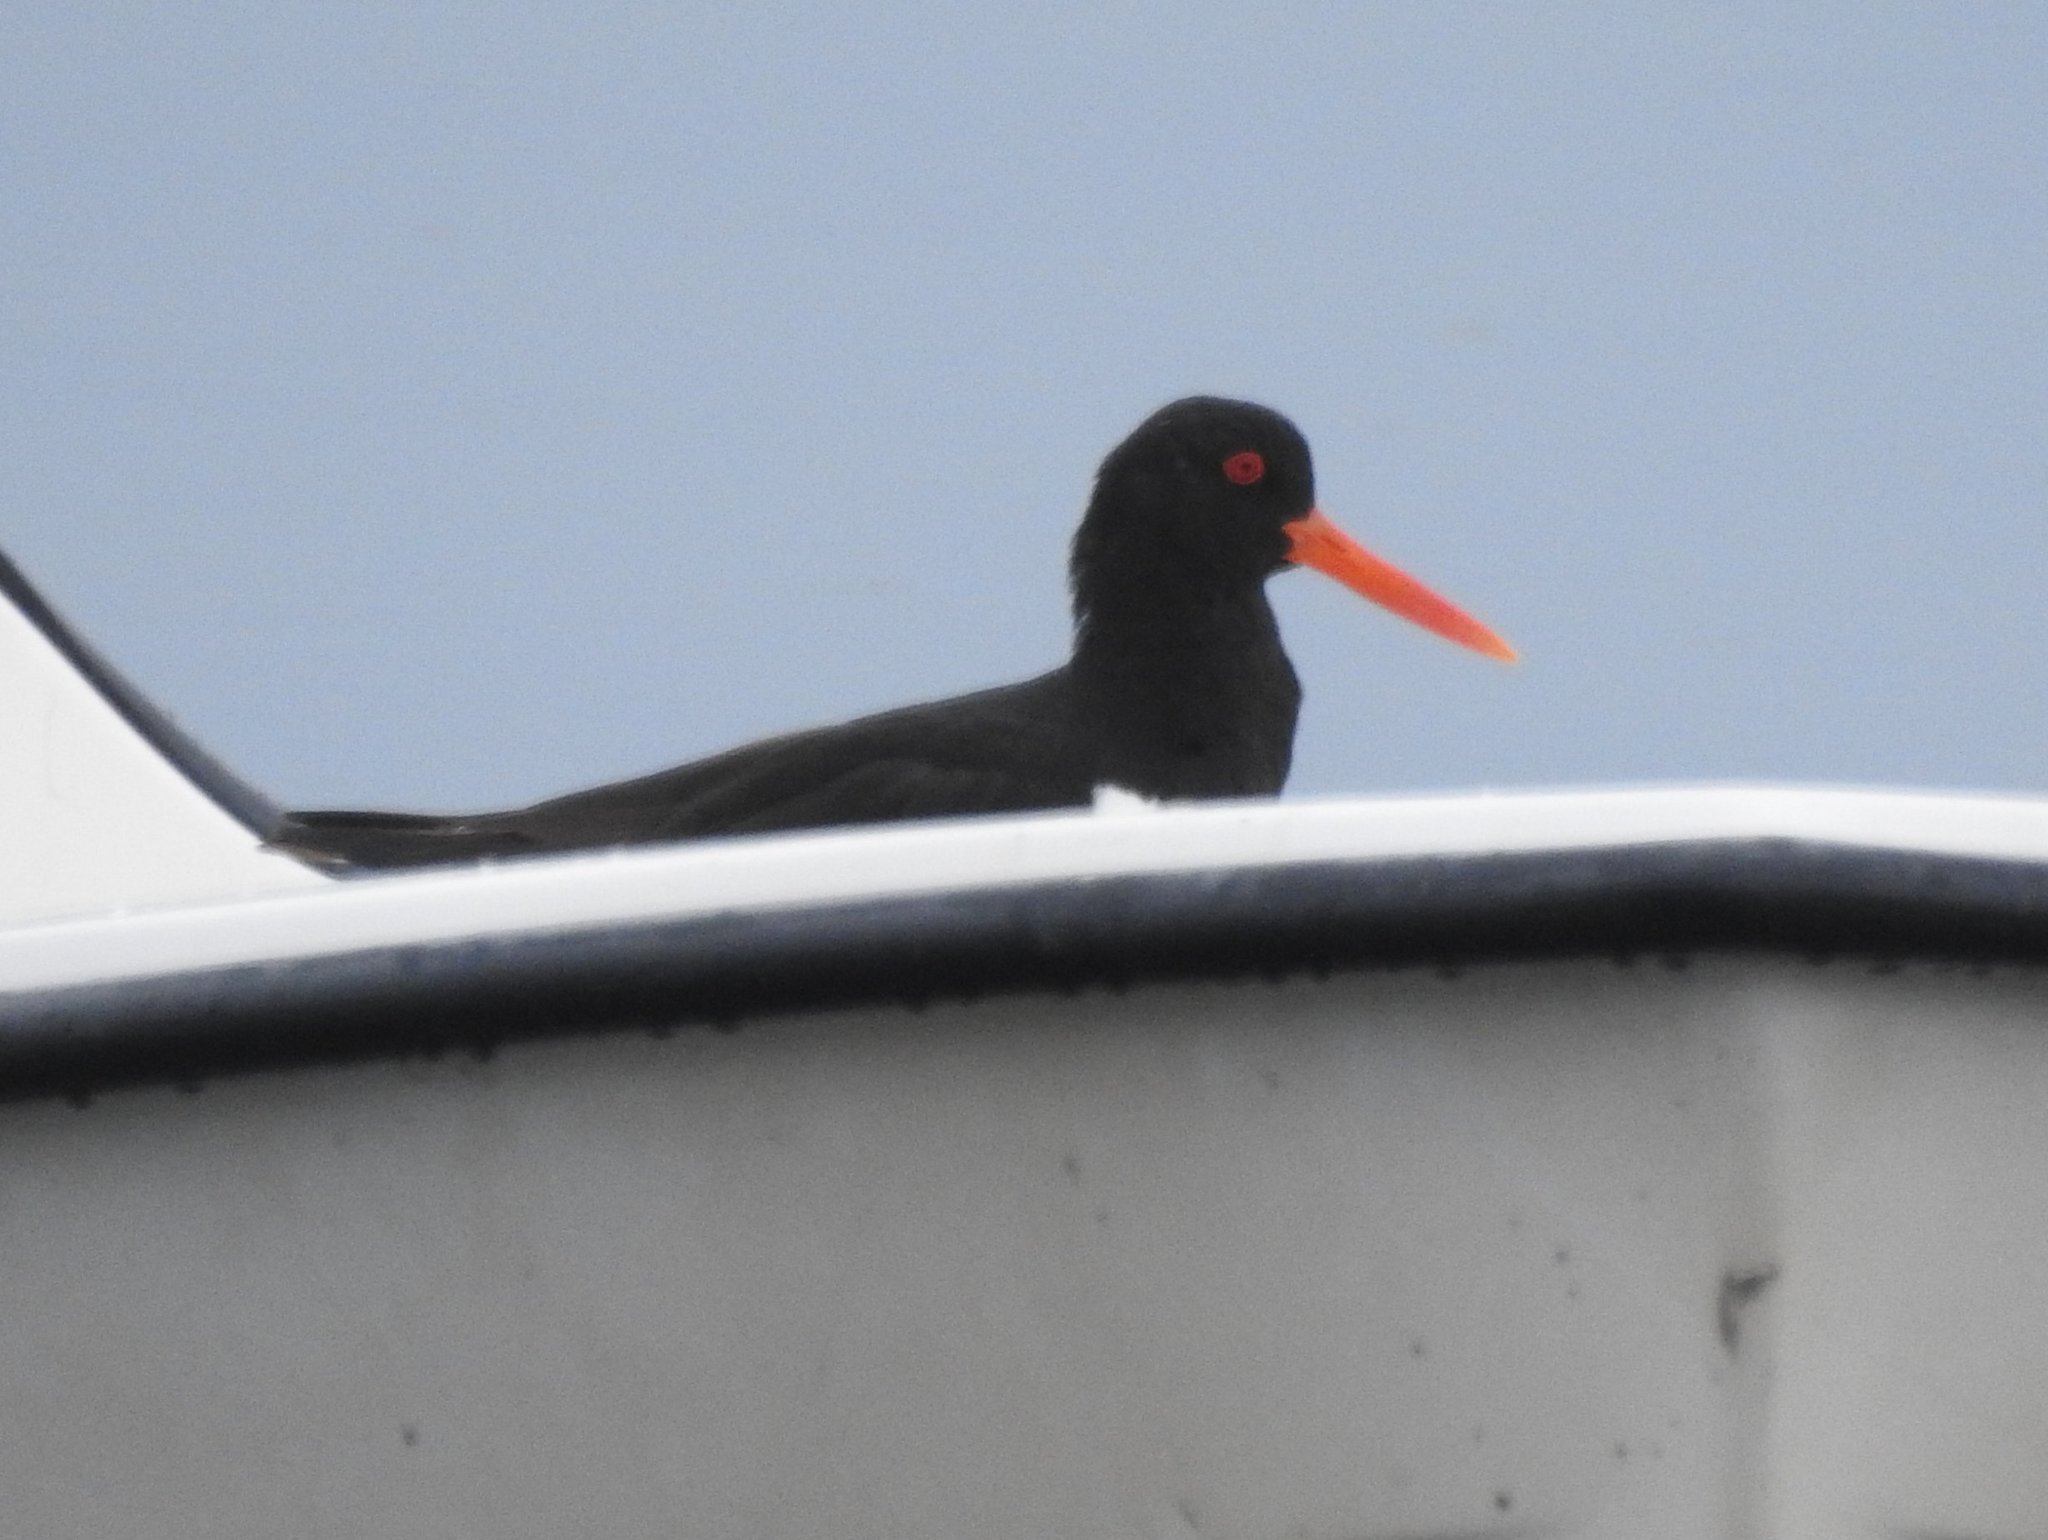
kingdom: Animalia
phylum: Chordata
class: Aves
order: Charadriiformes
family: Haematopodidae
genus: Haematopus
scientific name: Haematopus ostralegus
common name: Eurasian oystercatcher
